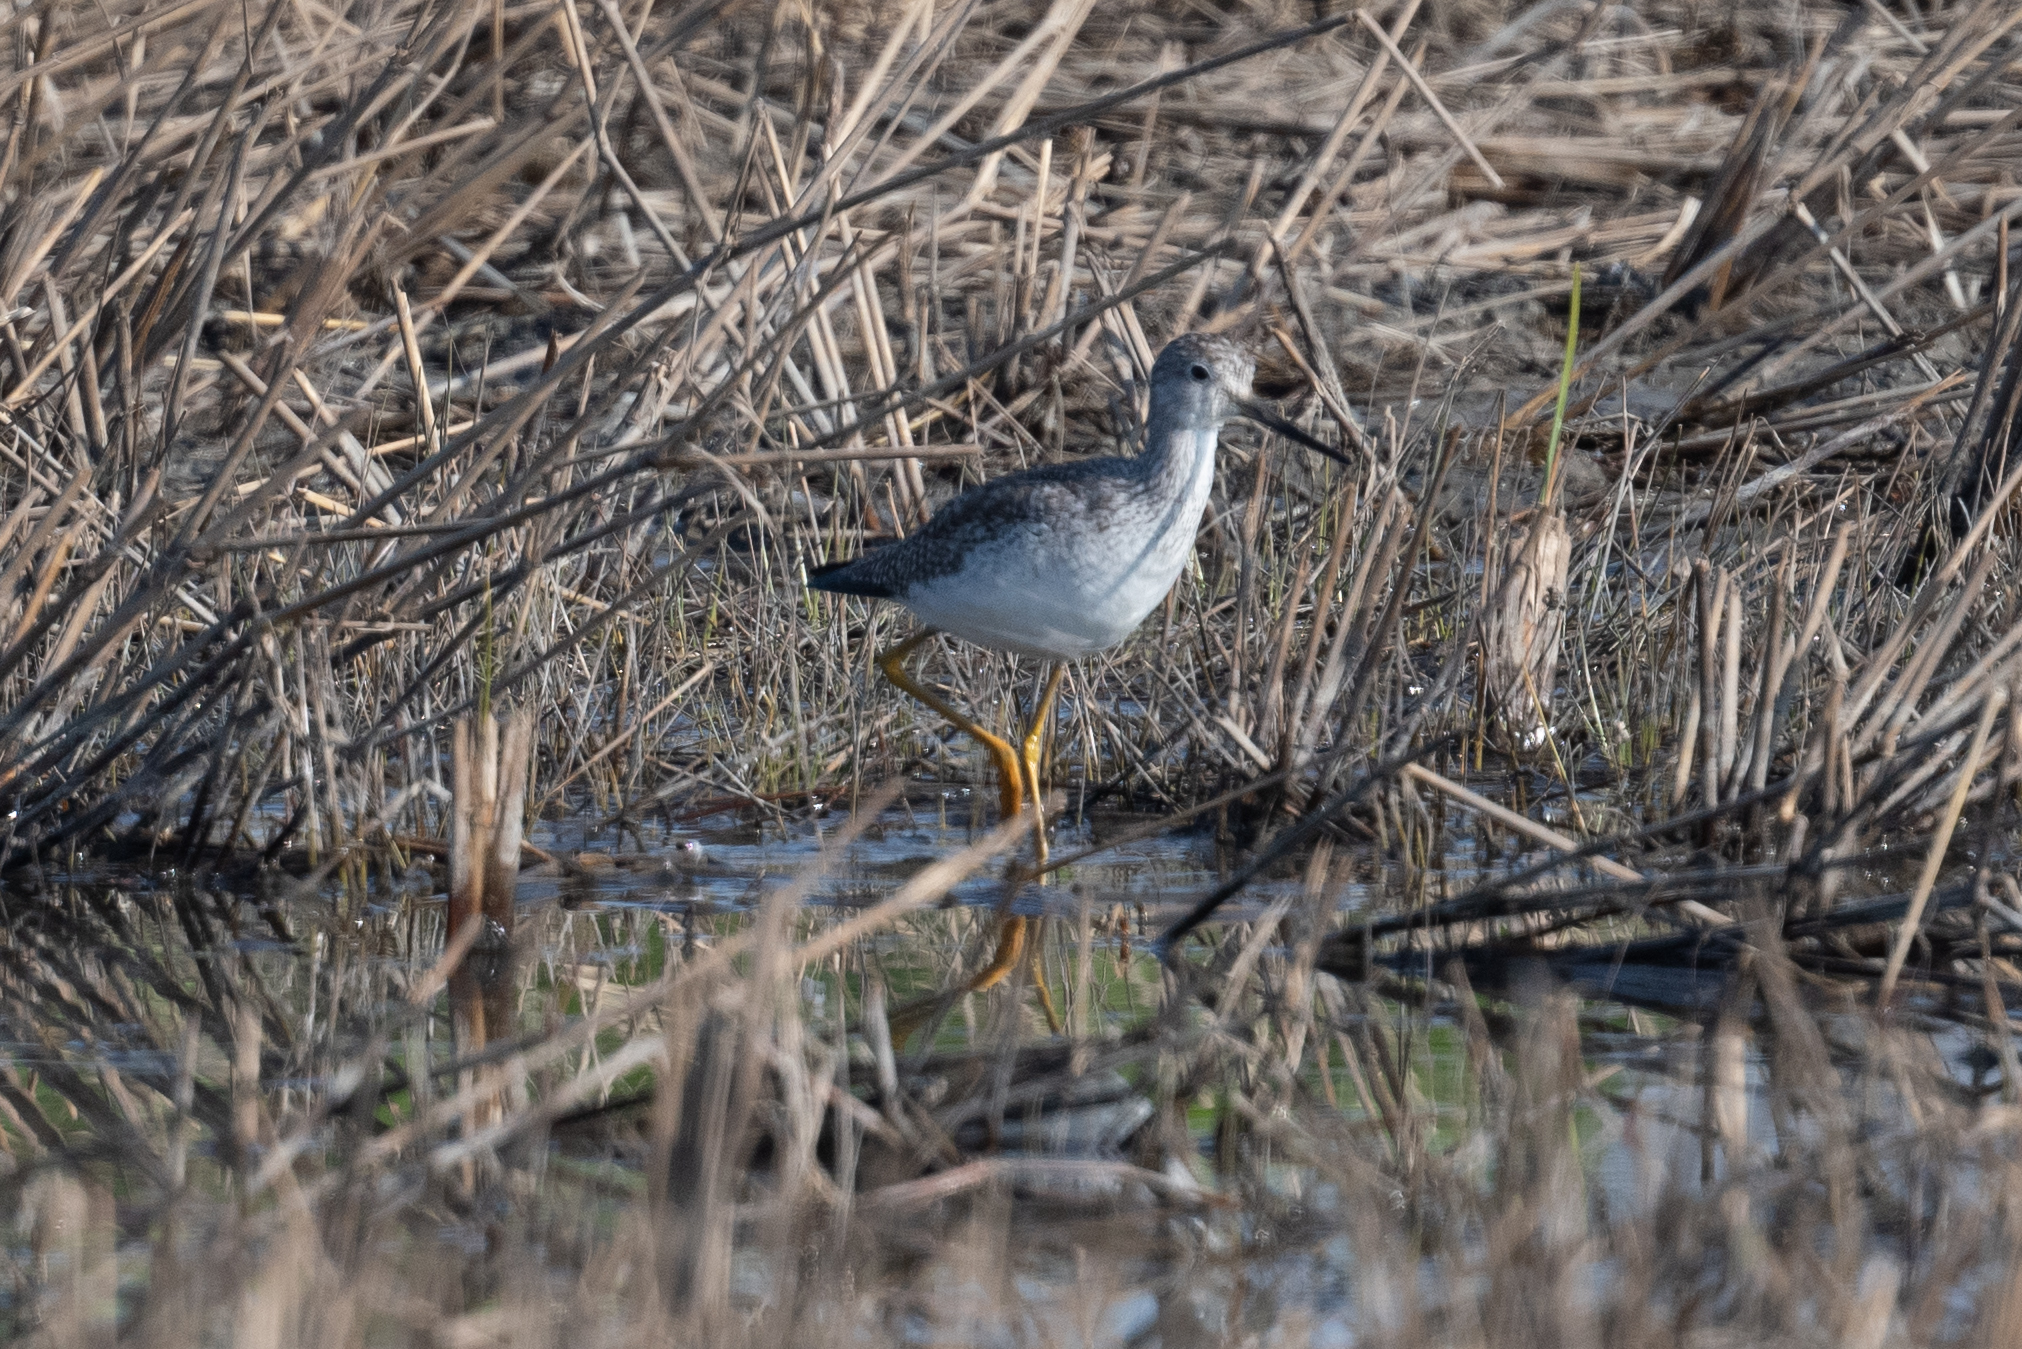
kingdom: Animalia
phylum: Chordata
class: Aves
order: Charadriiformes
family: Scolopacidae
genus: Tringa
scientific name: Tringa melanoleuca
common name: Greater yellowlegs
